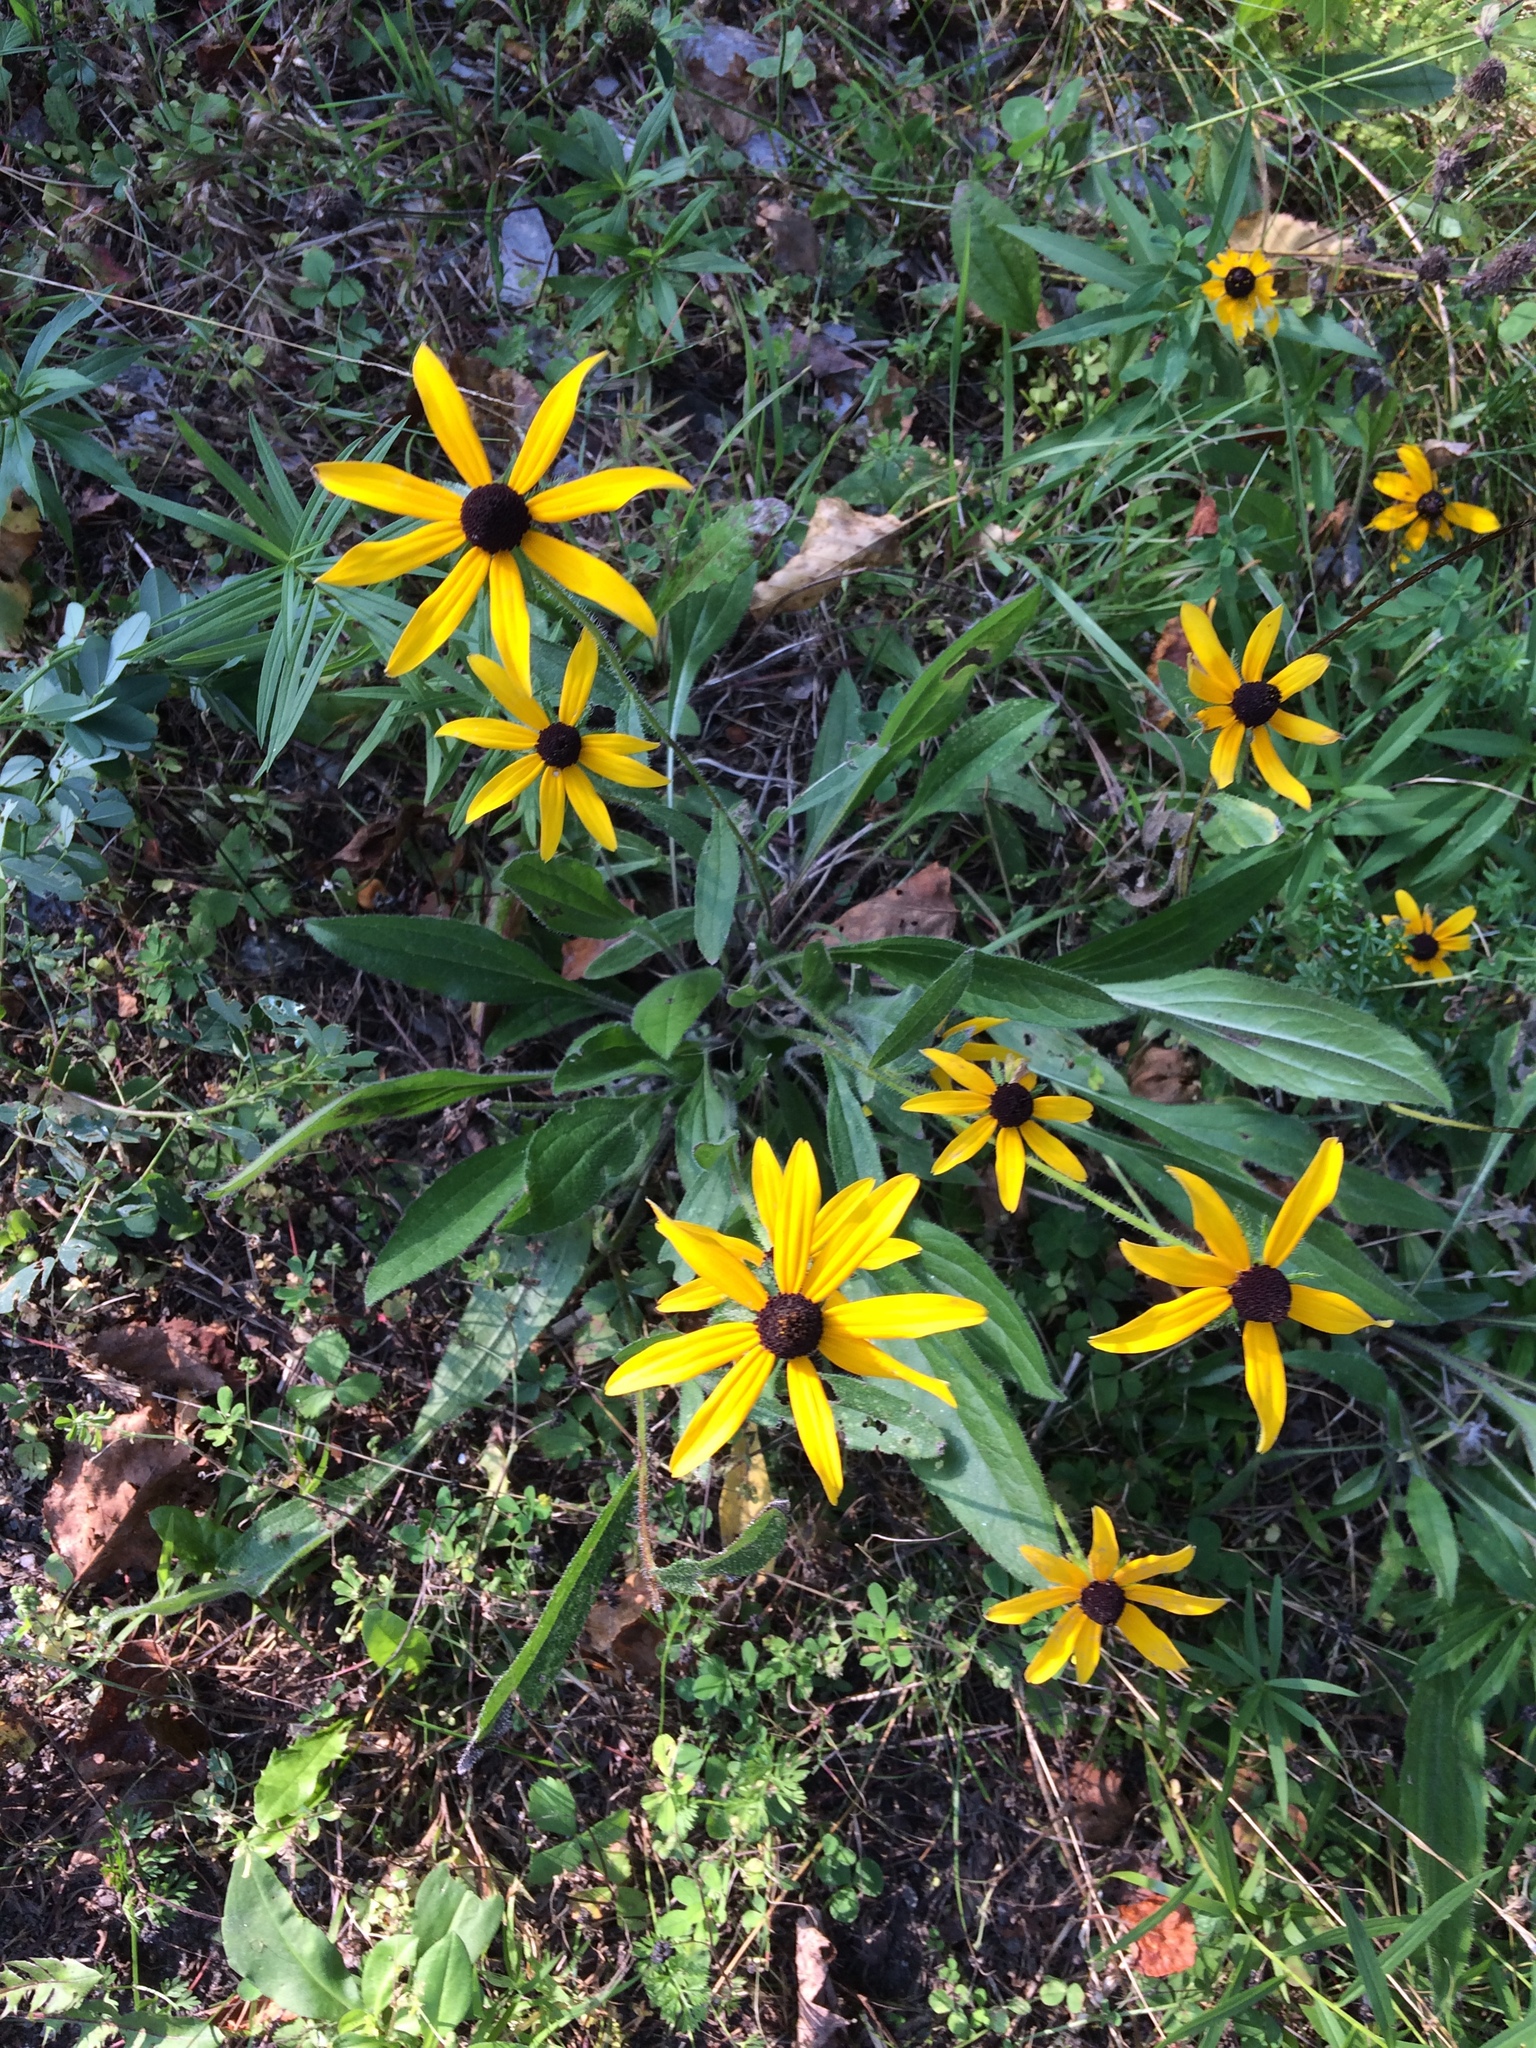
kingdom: Plantae
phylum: Tracheophyta
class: Magnoliopsida
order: Asterales
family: Asteraceae
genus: Rudbeckia
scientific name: Rudbeckia hirta
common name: Black-eyed-susan
